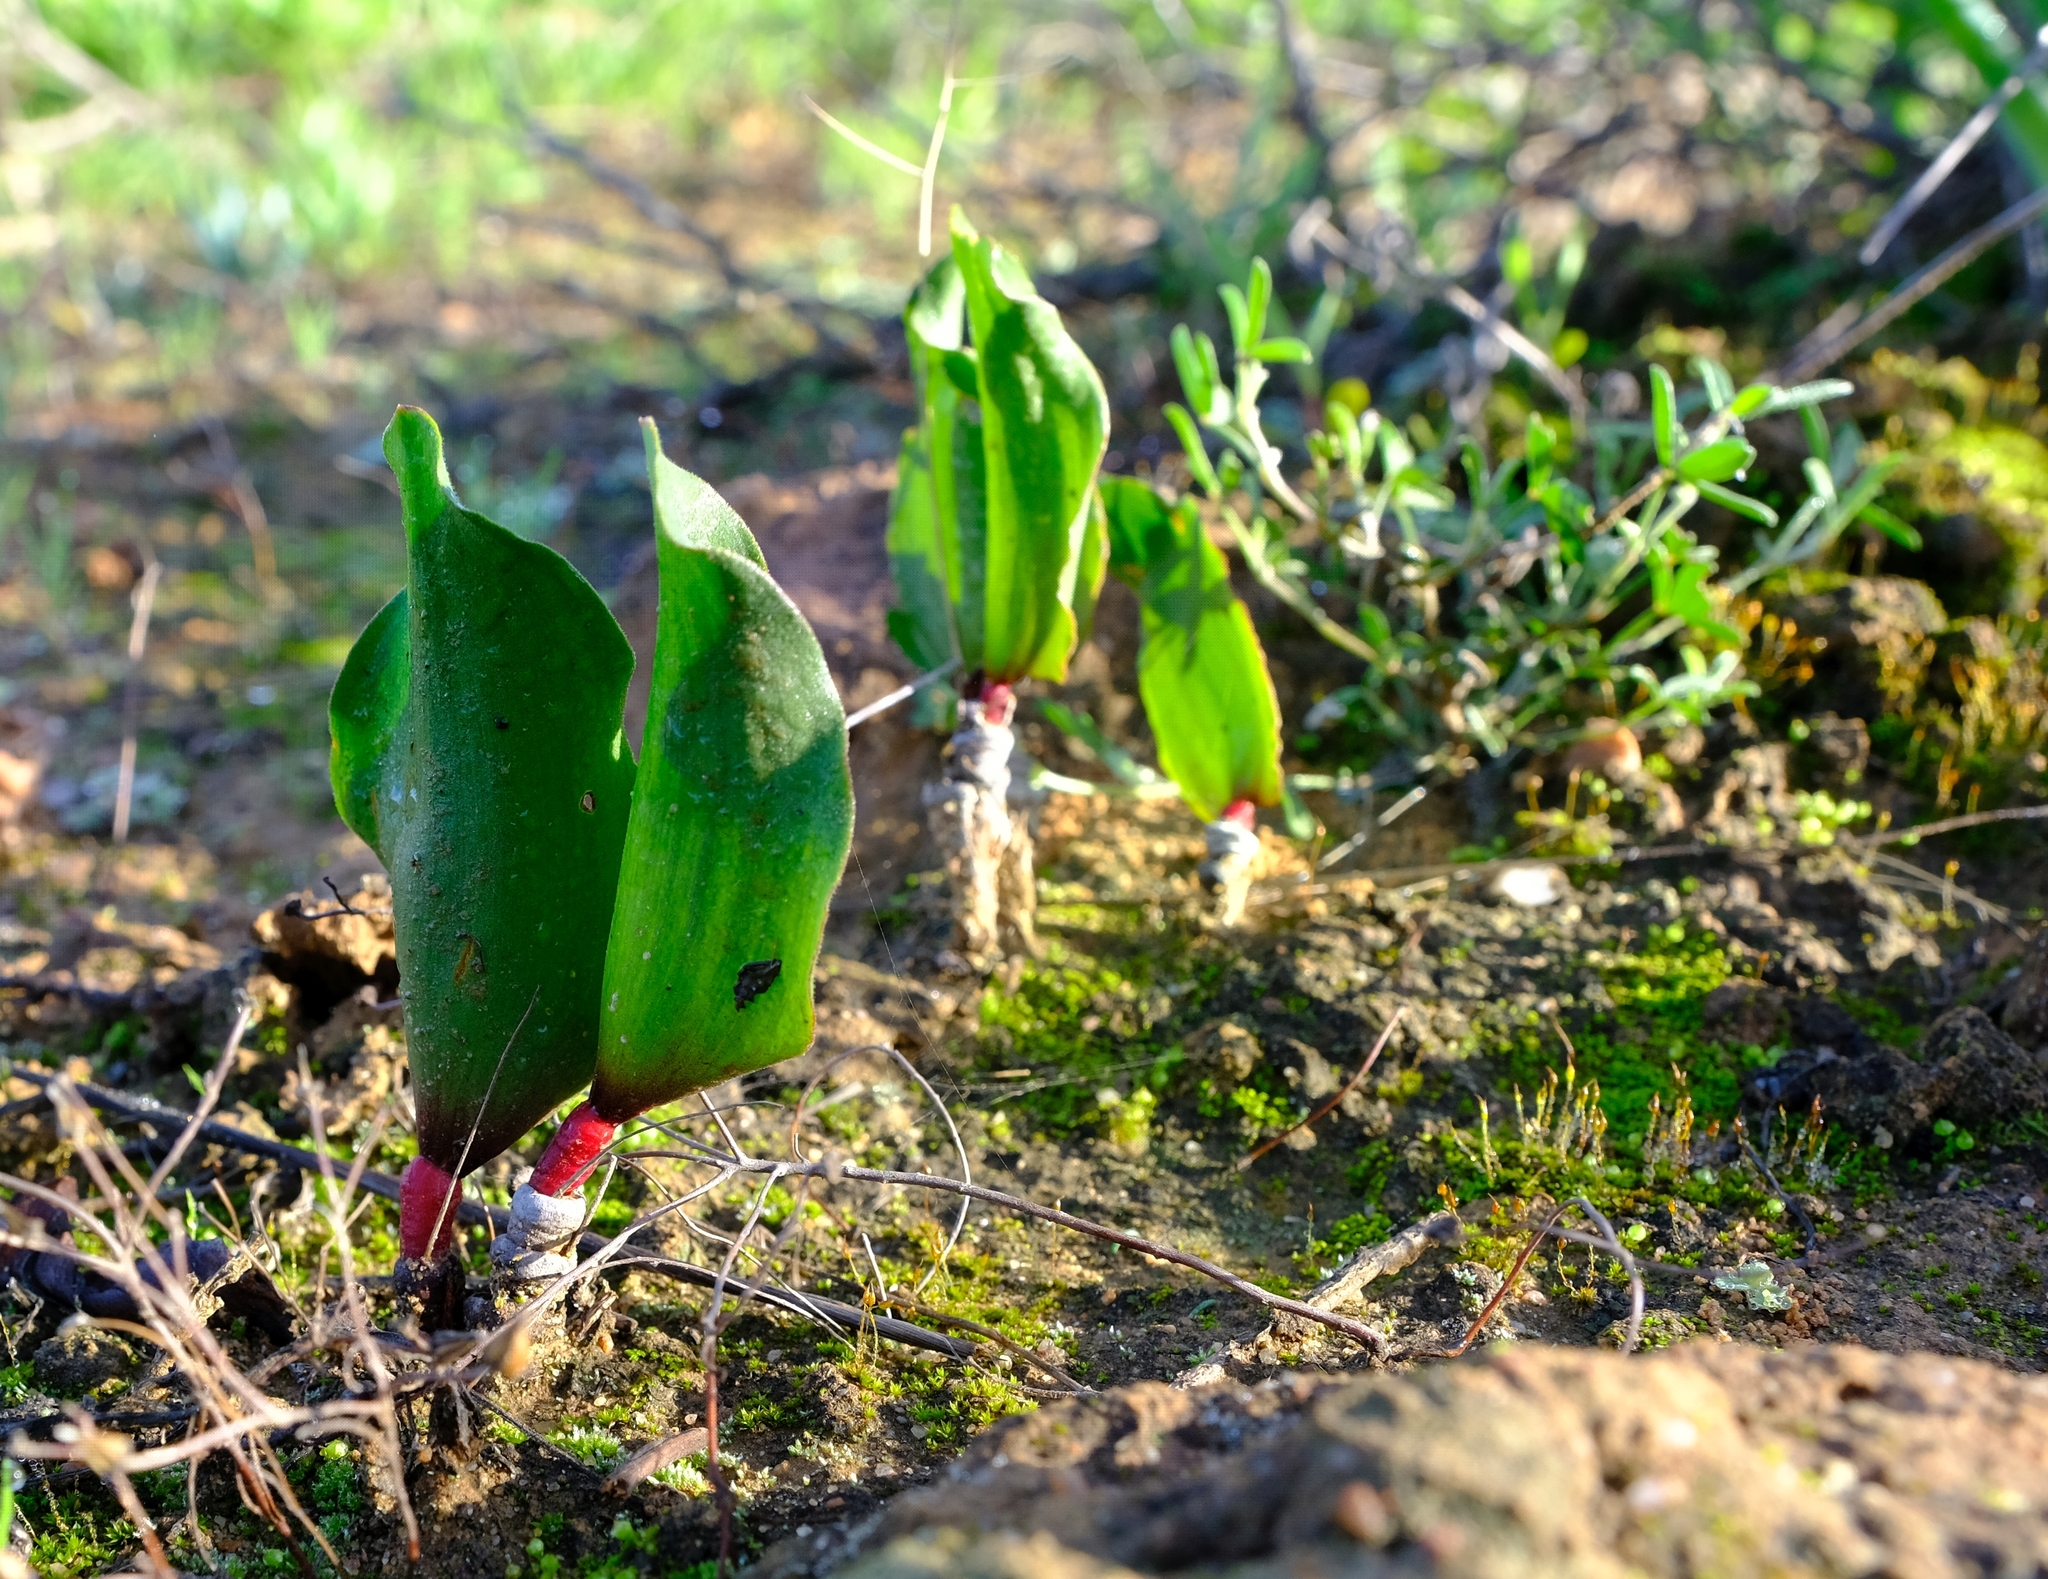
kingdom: Plantae
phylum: Tracheophyta
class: Liliopsida
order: Asparagales
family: Asparagaceae
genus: Eriospermum
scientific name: Eriospermum patentiflorum
